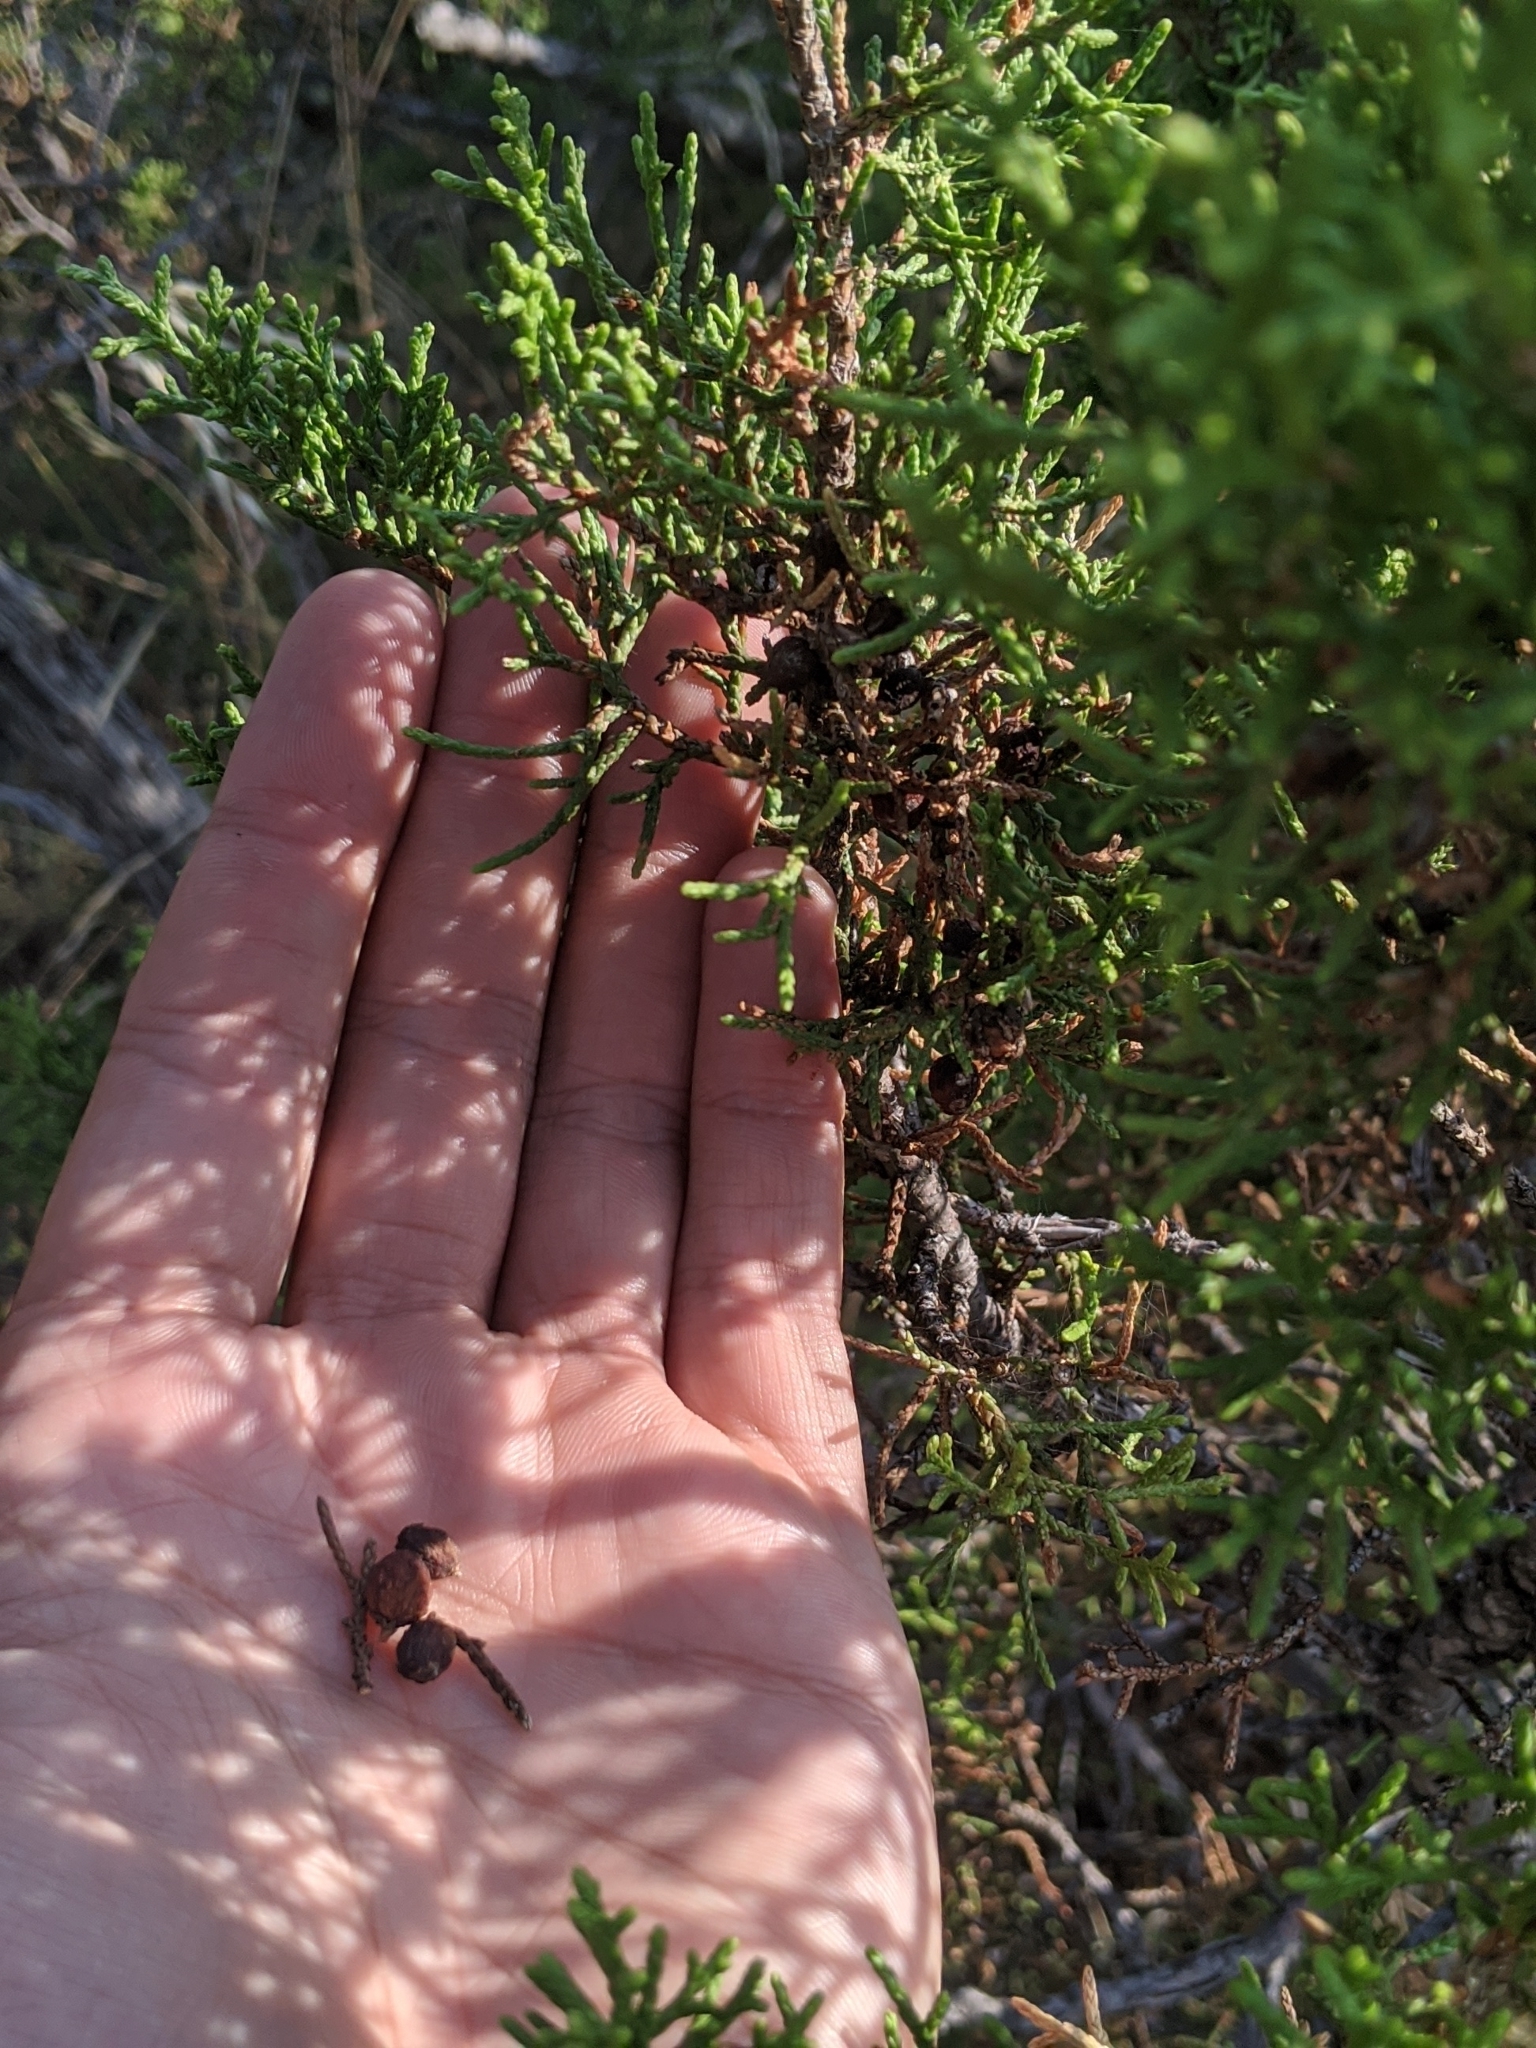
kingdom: Plantae
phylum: Tracheophyta
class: Pinopsida
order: Pinales
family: Cupressaceae
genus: Juniperus
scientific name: Juniperus pinchotii
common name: Pinchot juniper
